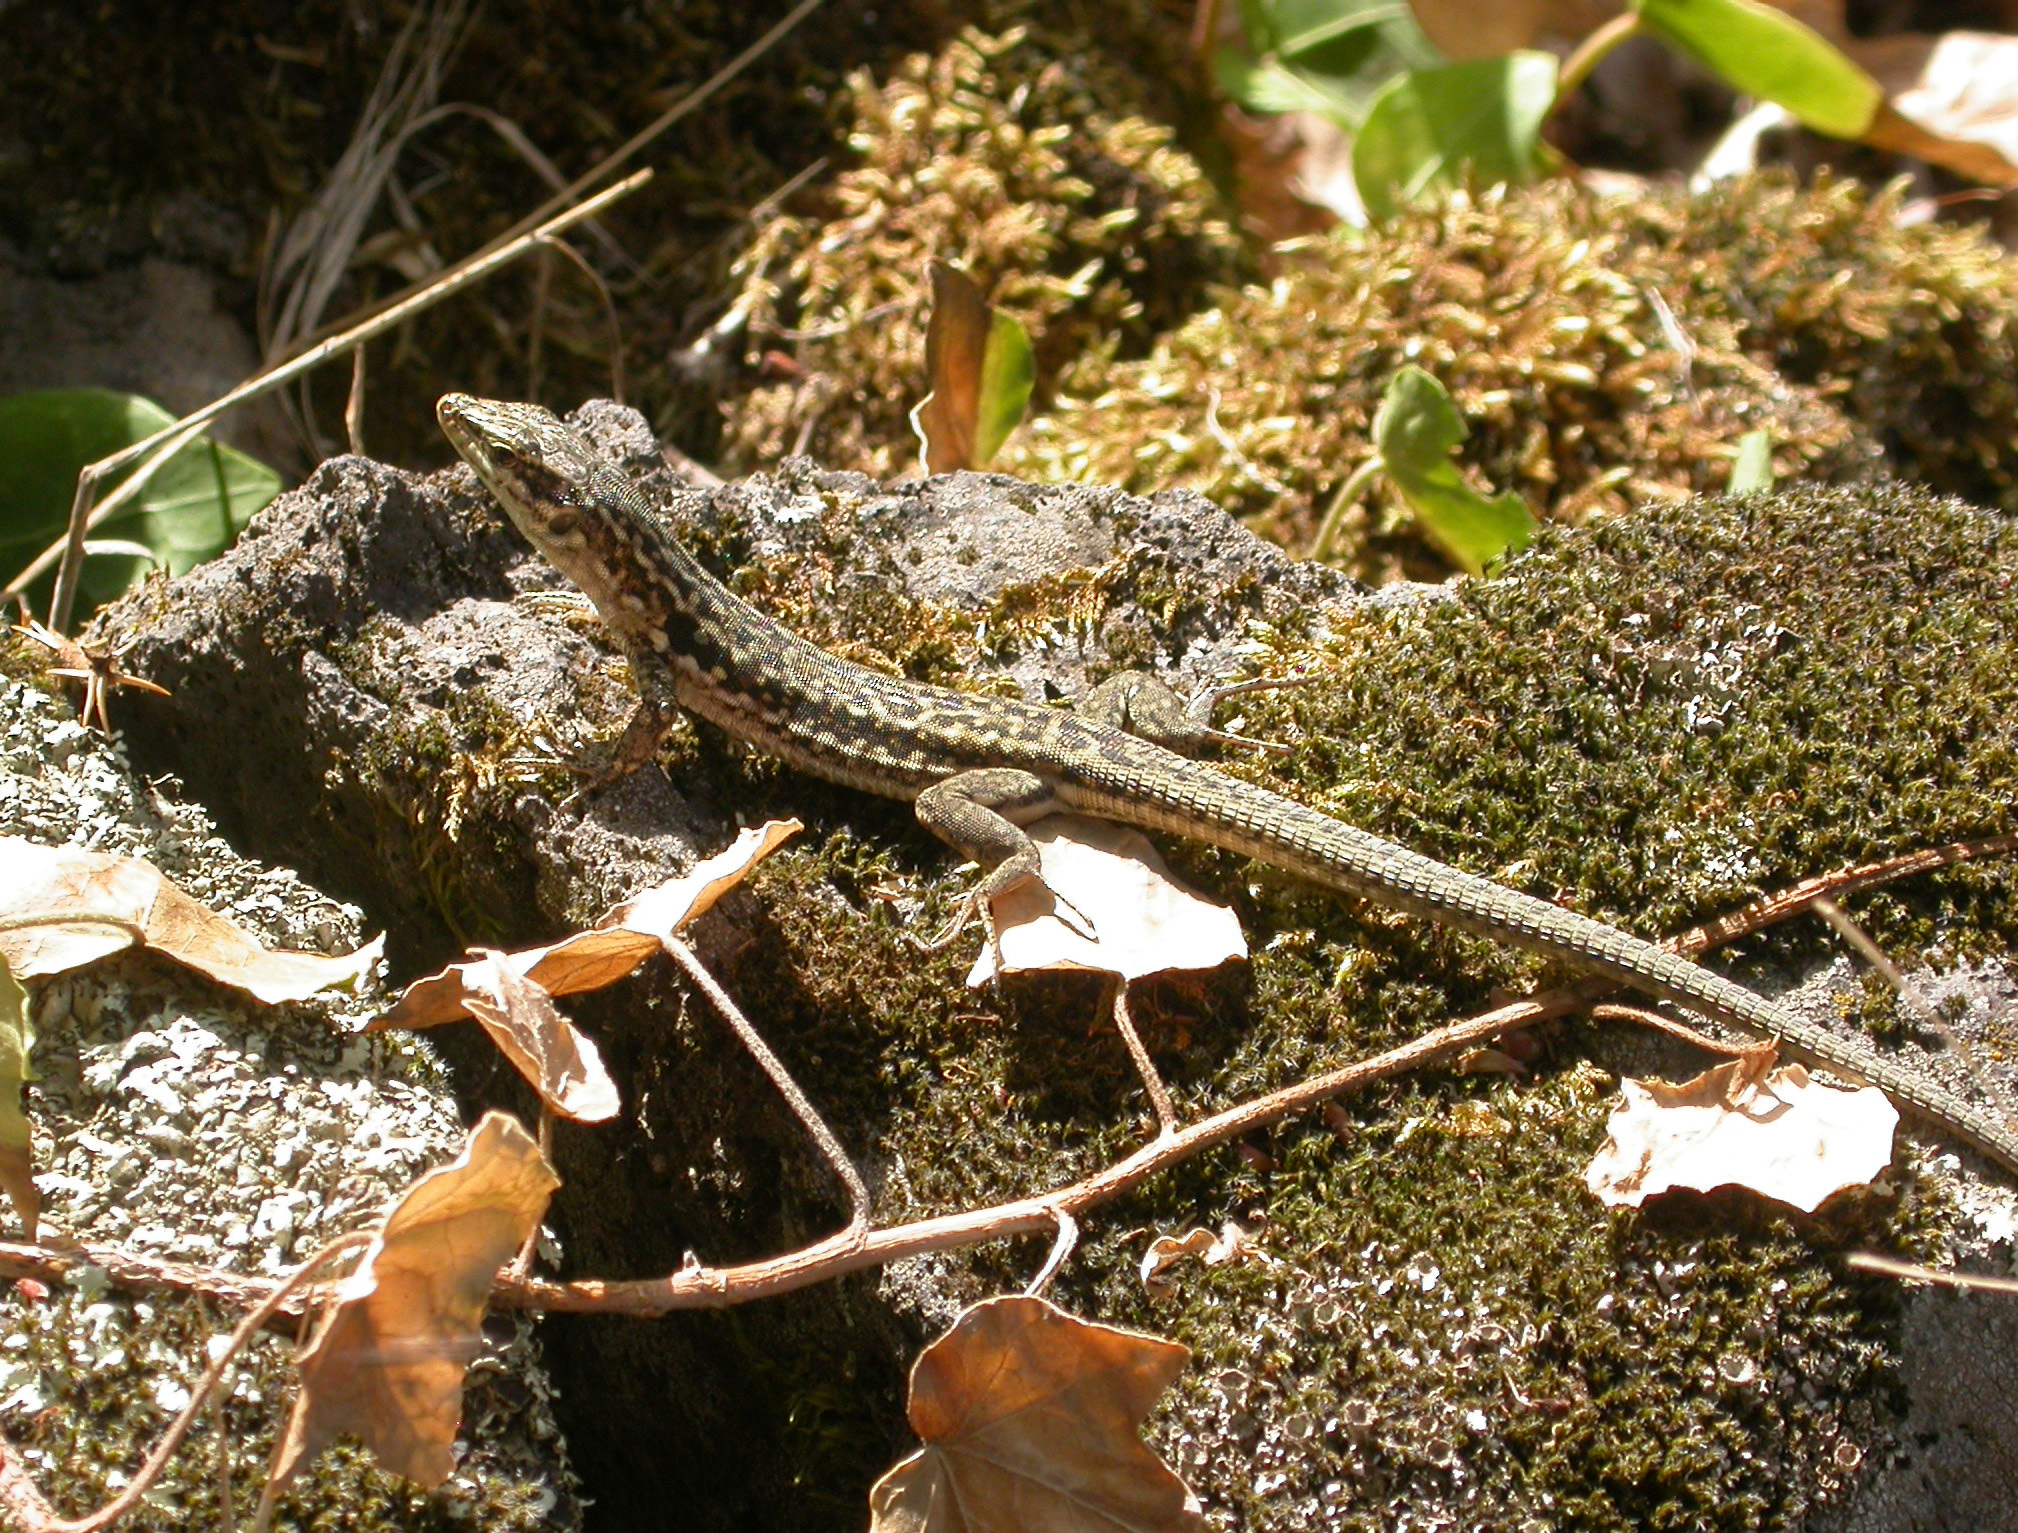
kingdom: Animalia
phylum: Chordata
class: Squamata
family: Lacertidae
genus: Podarcis
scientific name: Podarcis siculus
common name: Italian wall lizard
